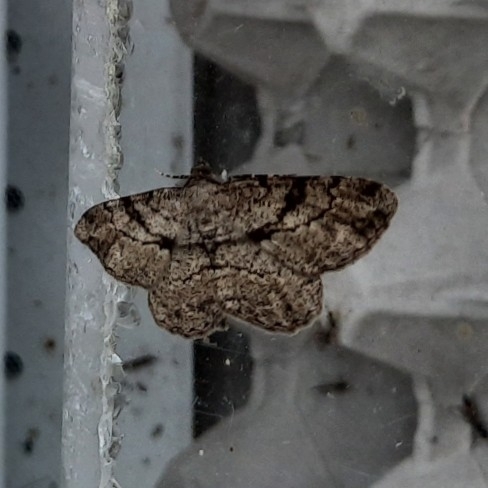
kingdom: Animalia
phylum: Arthropoda
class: Insecta
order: Lepidoptera
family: Geometridae
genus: Peribatodes
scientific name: Peribatodes rhomboidaria
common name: Willow beauty
